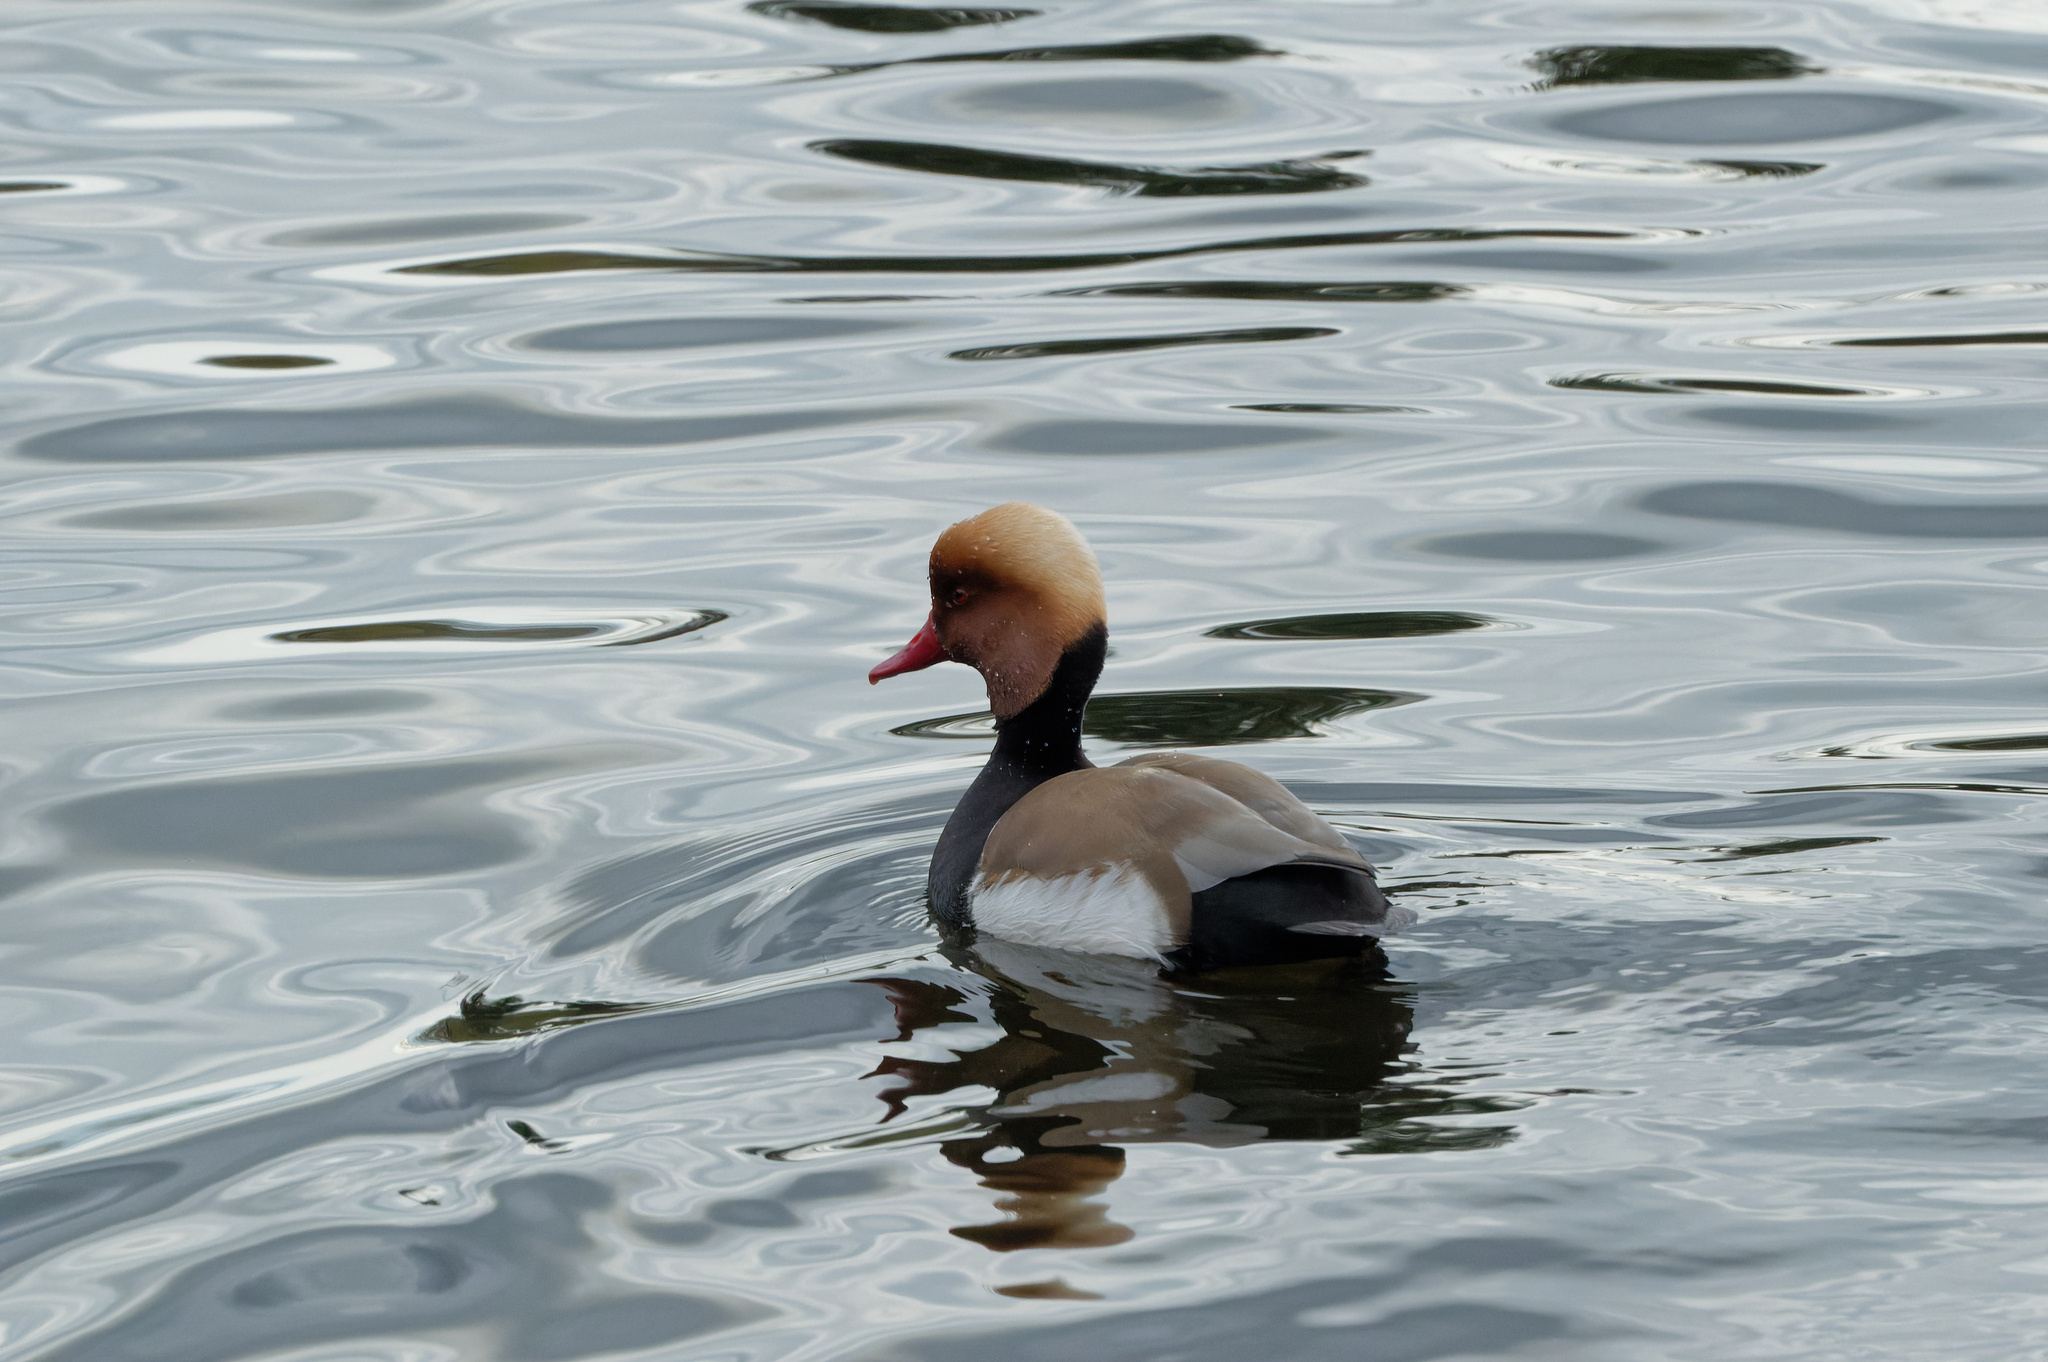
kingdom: Animalia
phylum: Chordata
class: Aves
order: Anseriformes
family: Anatidae
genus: Netta
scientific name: Netta rufina
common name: Red-crested pochard
